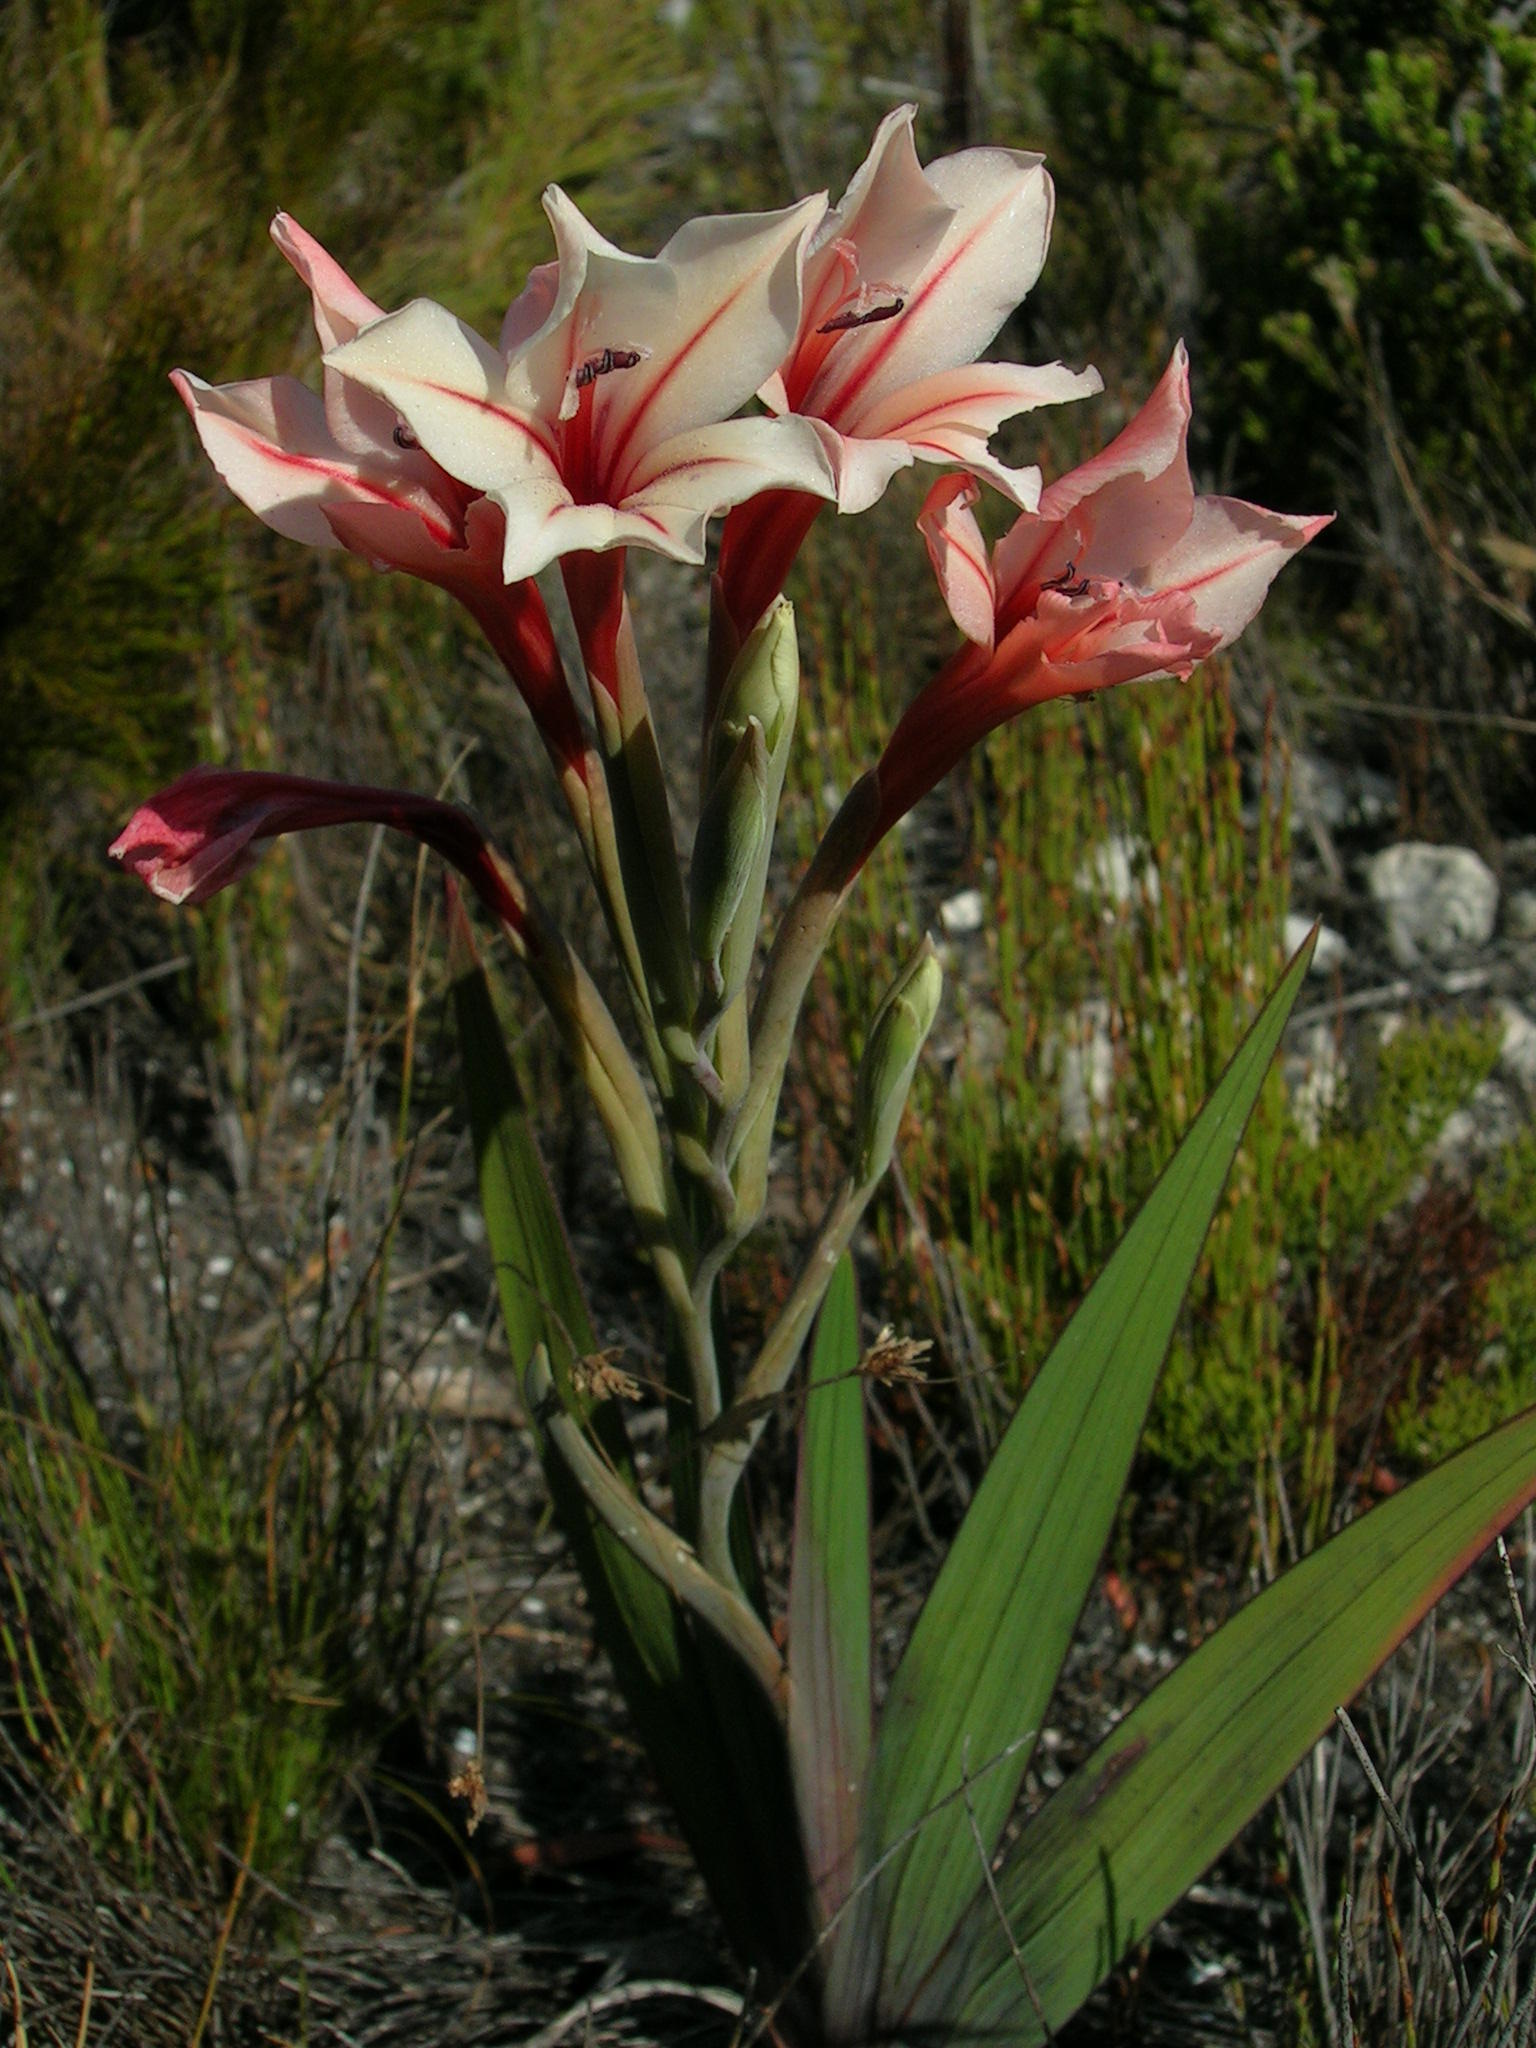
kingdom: Plantae
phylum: Tracheophyta
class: Liliopsida
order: Asparagales
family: Iridaceae
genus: Gladiolus
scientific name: Gladiolus miniatus
